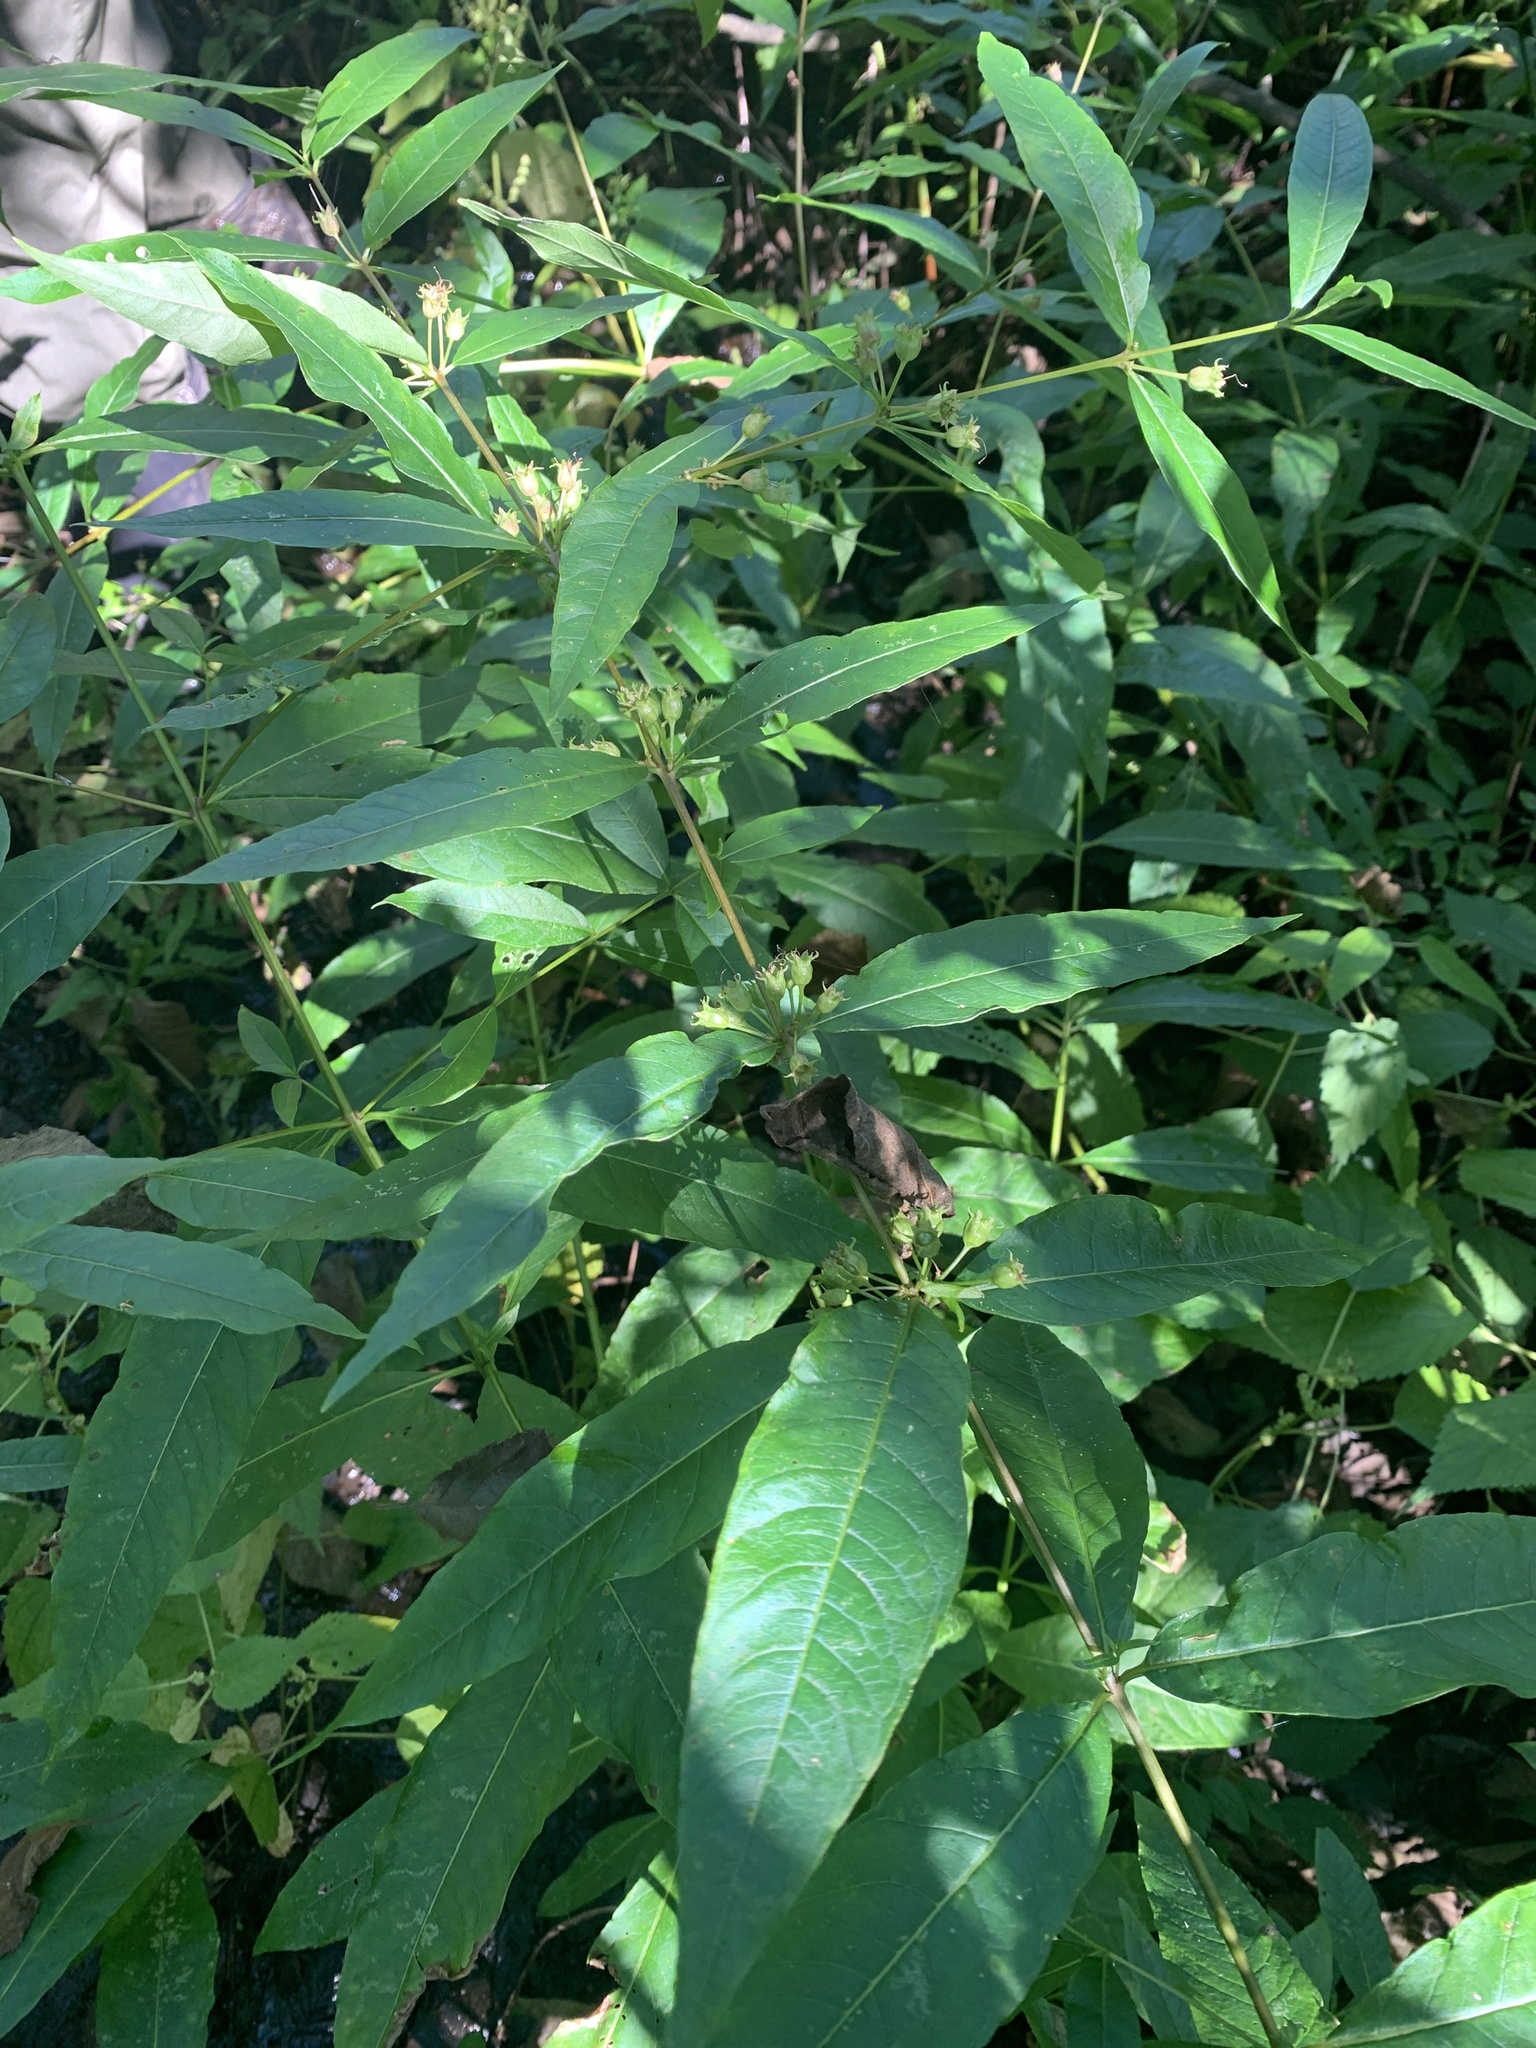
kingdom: Plantae
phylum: Tracheophyta
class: Magnoliopsida
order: Myrtales
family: Lythraceae
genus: Decodon
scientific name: Decodon verticillatus
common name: Hairy swamp loosestrife
